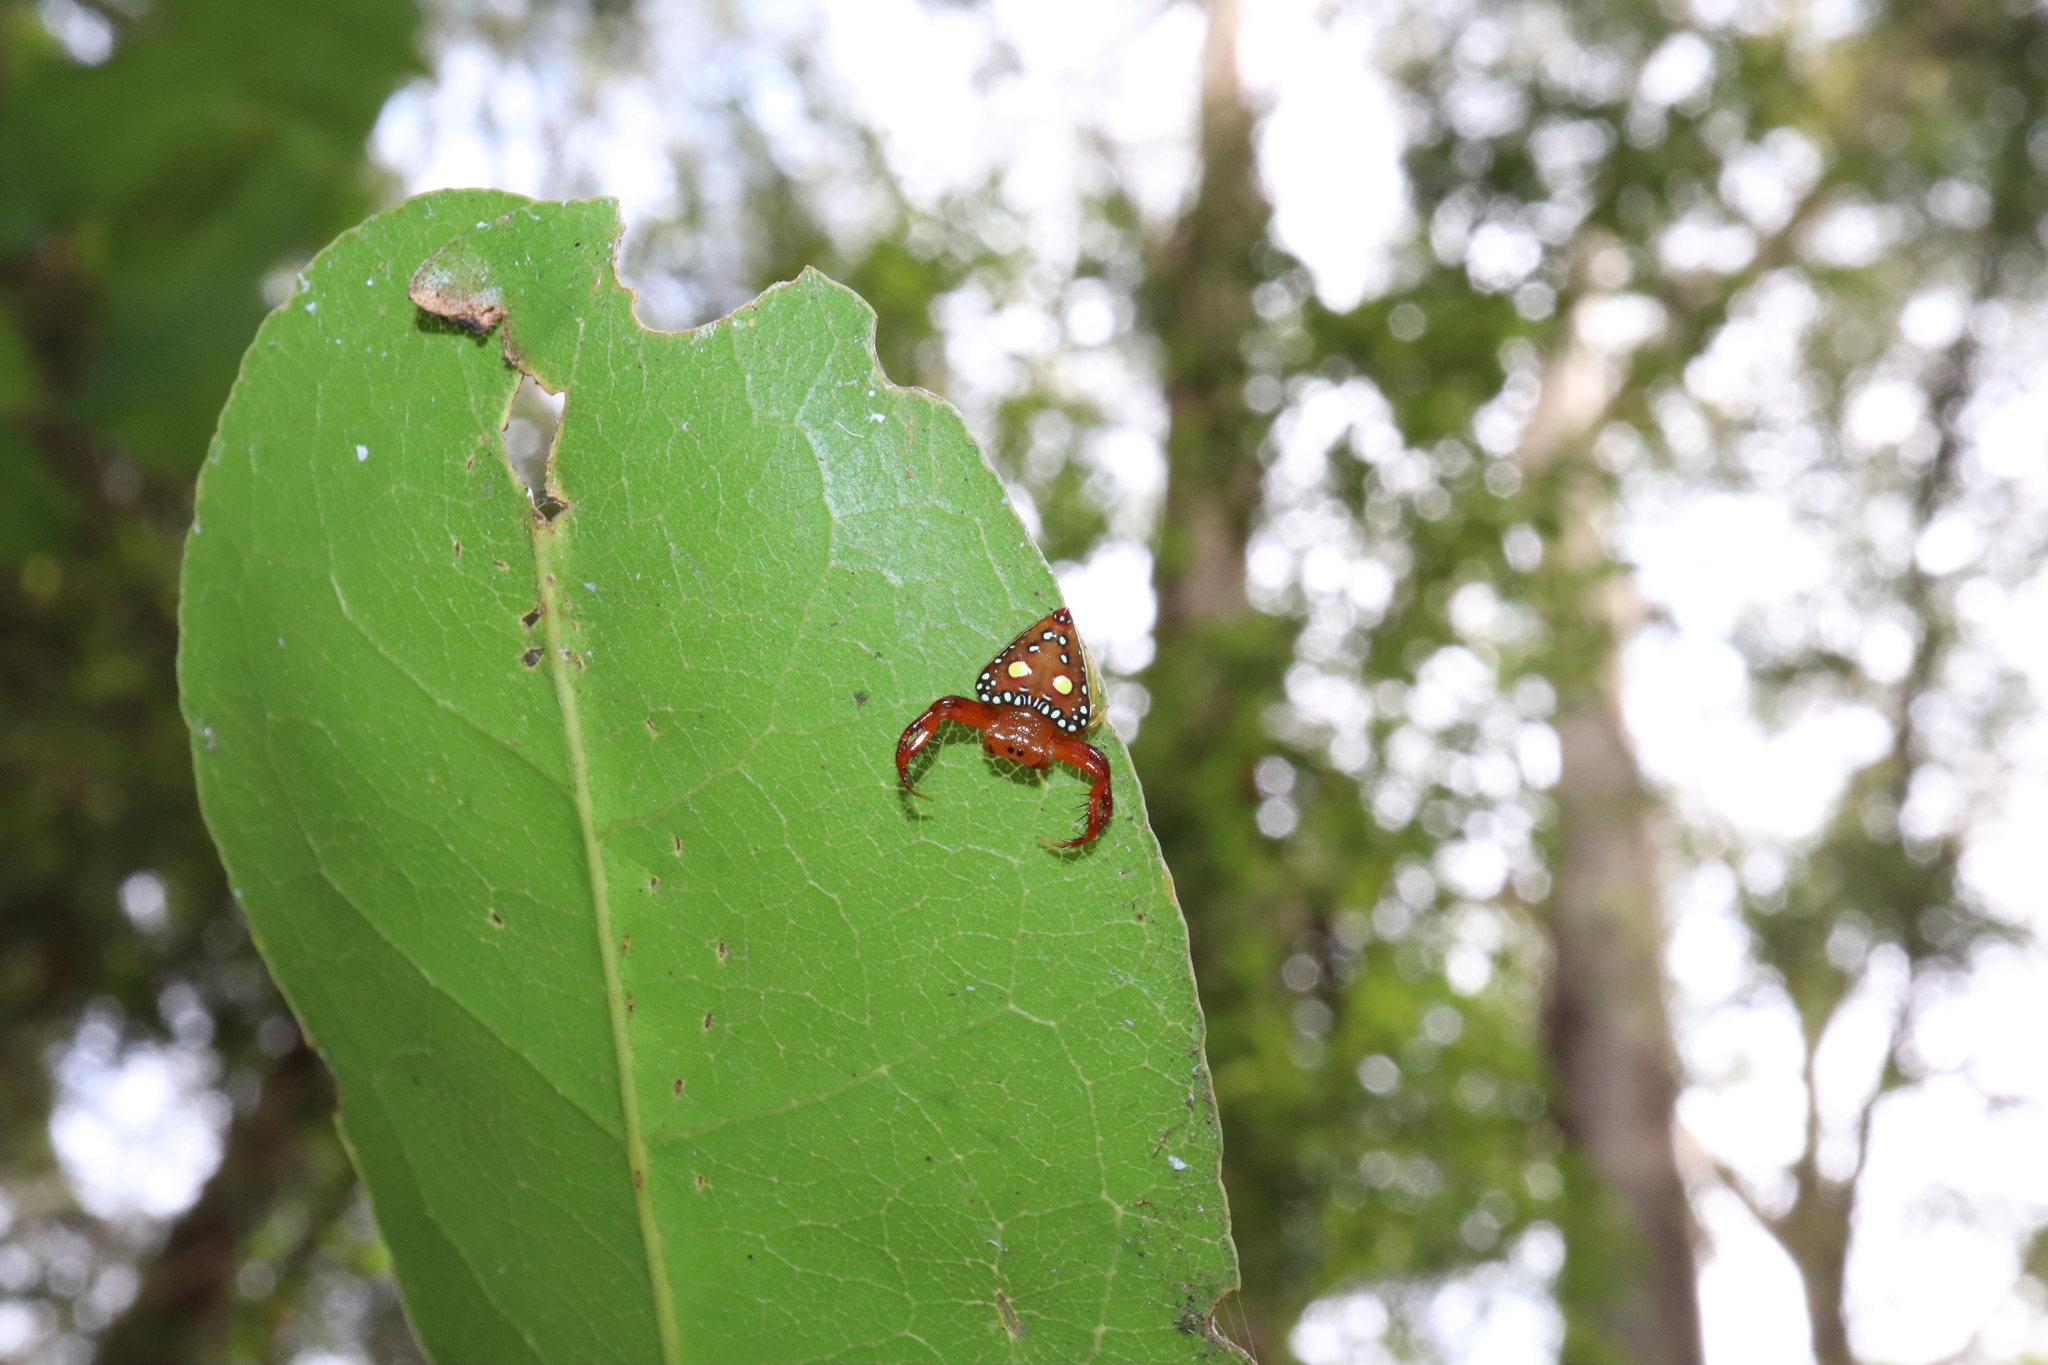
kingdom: Animalia
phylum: Arthropoda
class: Arachnida
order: Araneae
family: Arkyidae
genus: Arkys
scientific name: Arkys lancearius
